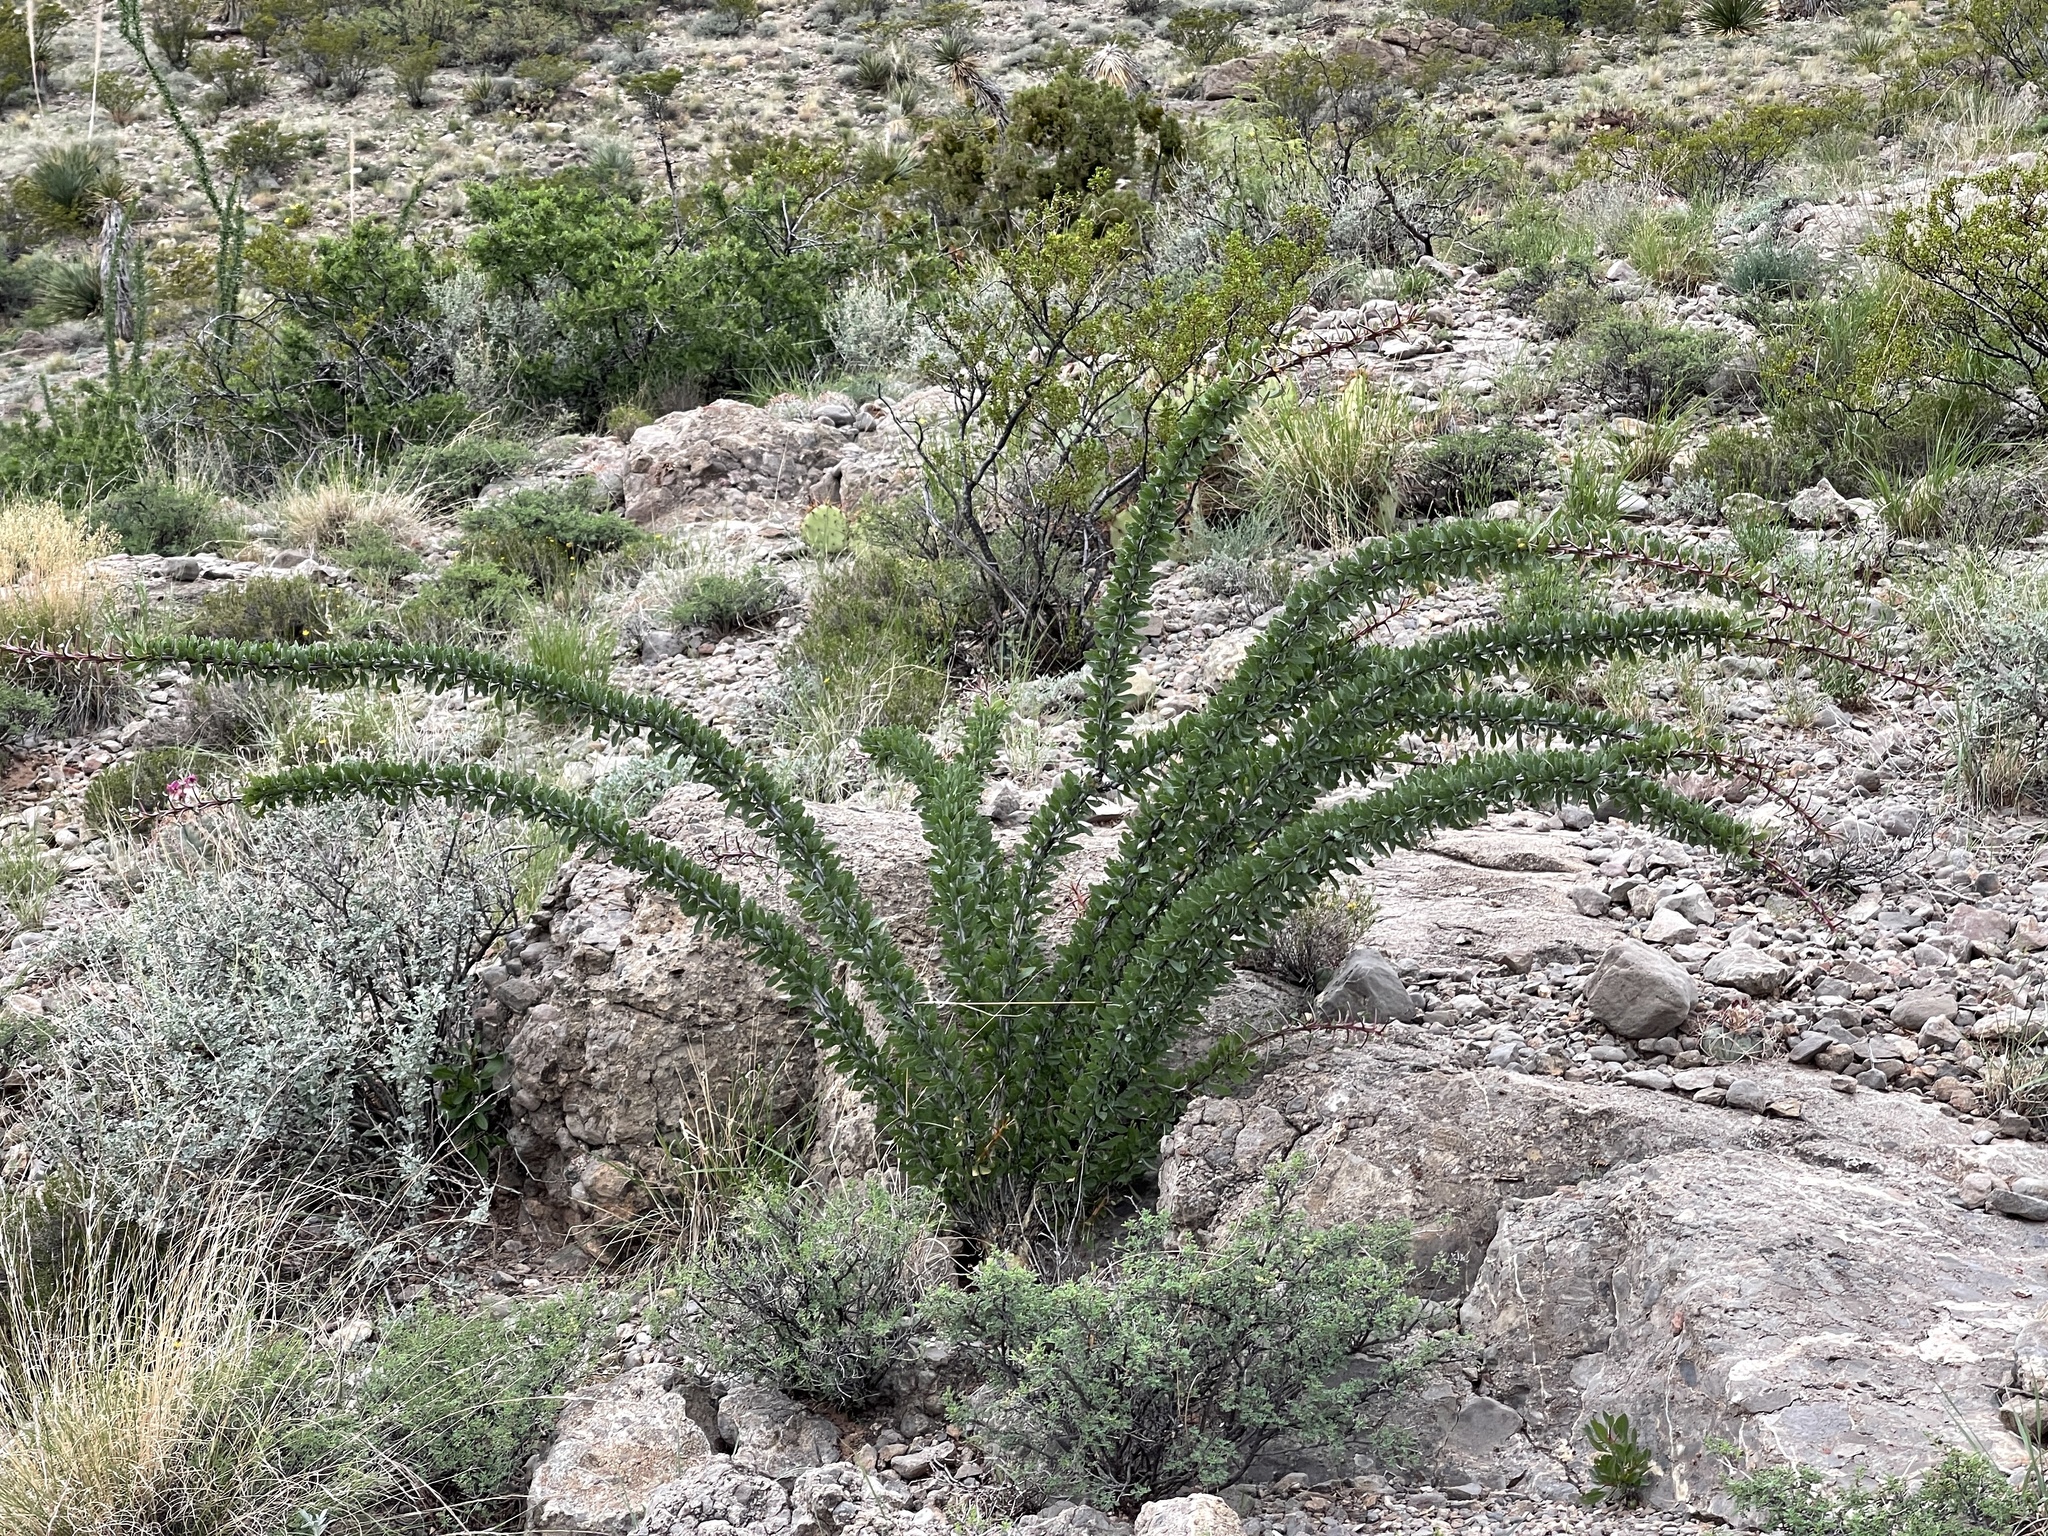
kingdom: Plantae
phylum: Tracheophyta
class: Magnoliopsida
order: Ericales
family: Fouquieriaceae
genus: Fouquieria
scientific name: Fouquieria splendens
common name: Vine-cactus
